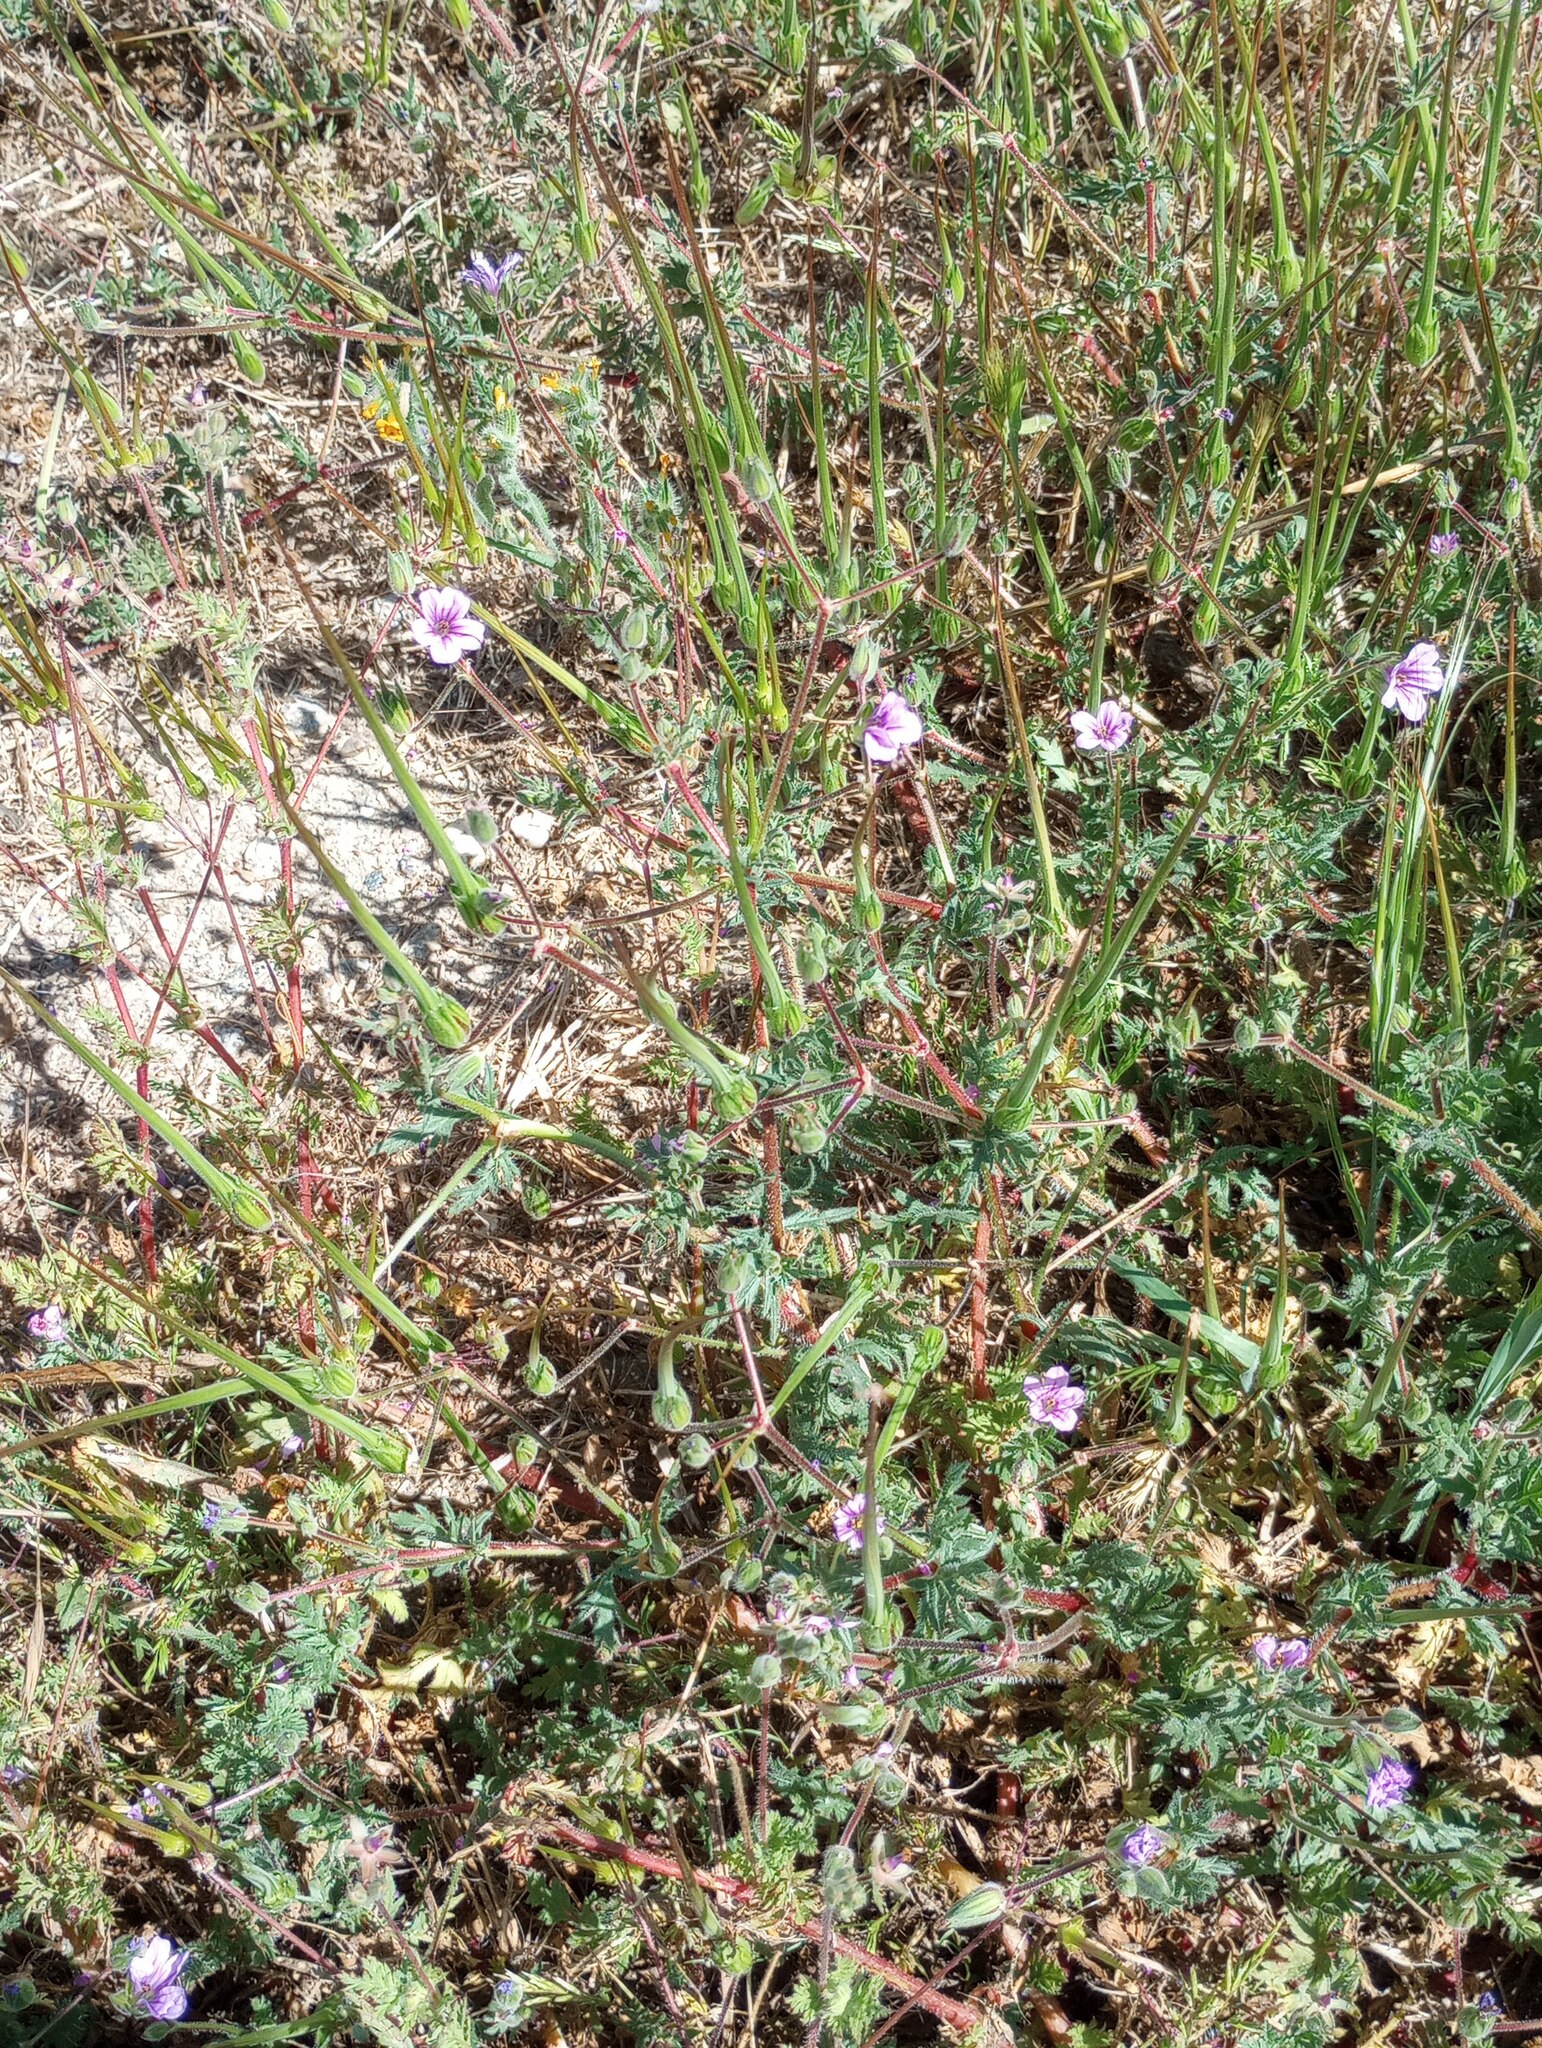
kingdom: Plantae
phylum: Tracheophyta
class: Magnoliopsida
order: Geraniales
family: Geraniaceae
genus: Erodium
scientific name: Erodium botrys
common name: Mediterranean stork's-bill
